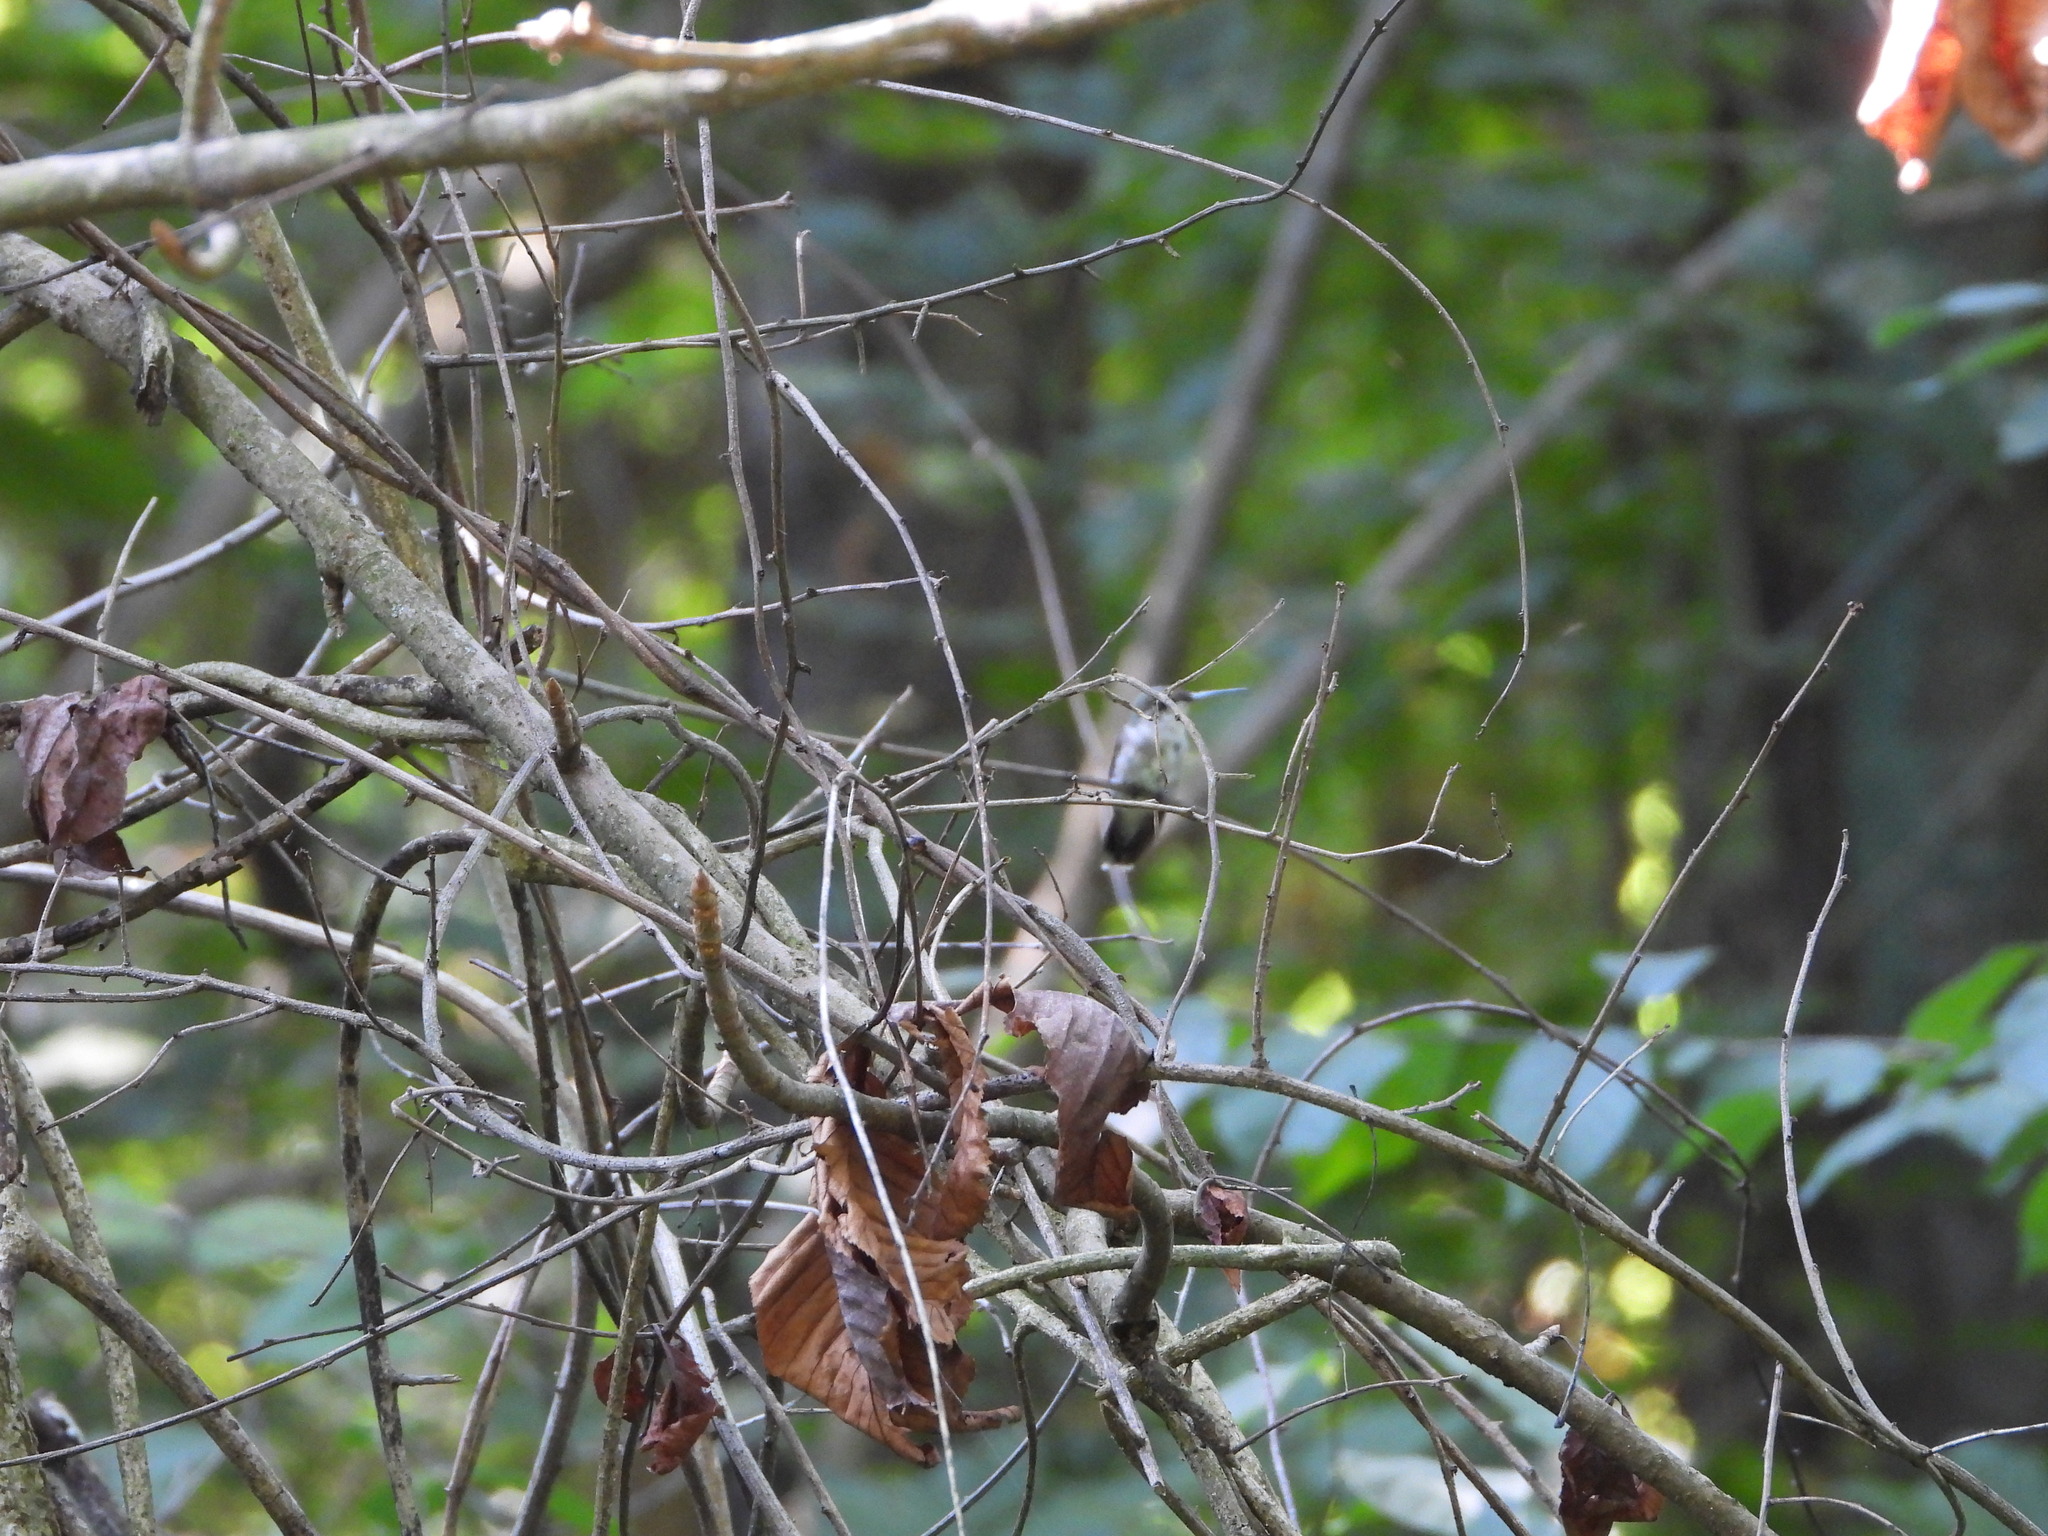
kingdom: Animalia
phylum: Chordata
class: Aves
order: Apodiformes
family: Trochilidae
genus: Archilochus
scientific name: Archilochus colubris
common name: Ruby-throated hummingbird
